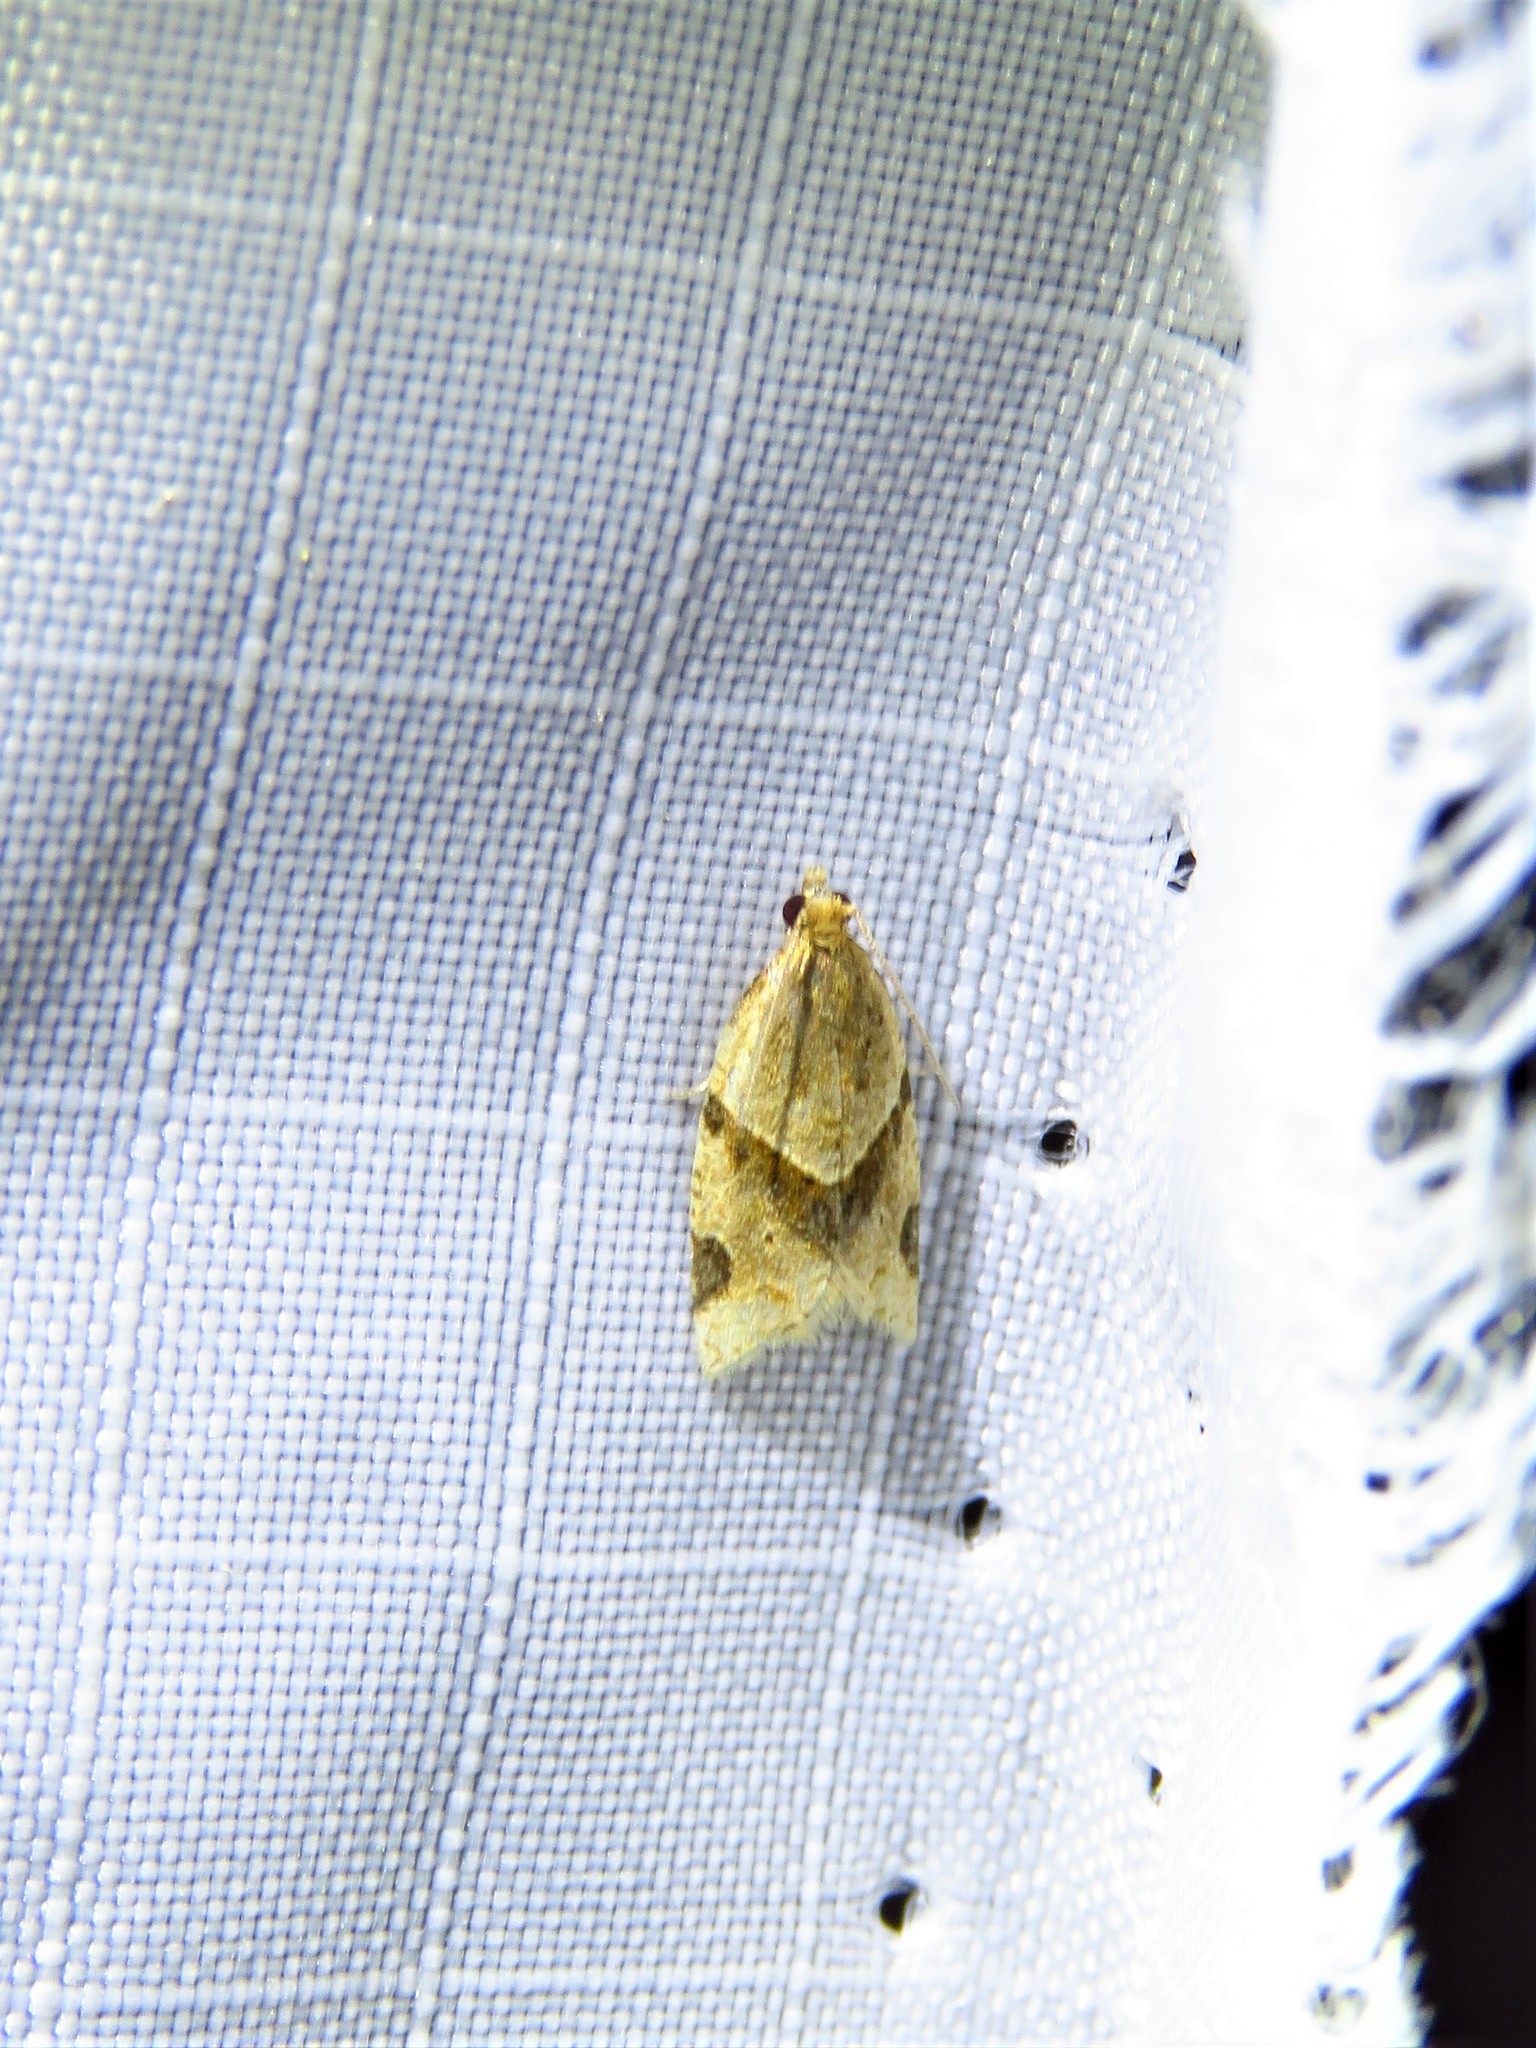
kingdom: Animalia
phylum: Arthropoda
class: Insecta
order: Lepidoptera
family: Tortricidae
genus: Clepsis
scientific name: Clepsis peritana
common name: Garden tortrix
